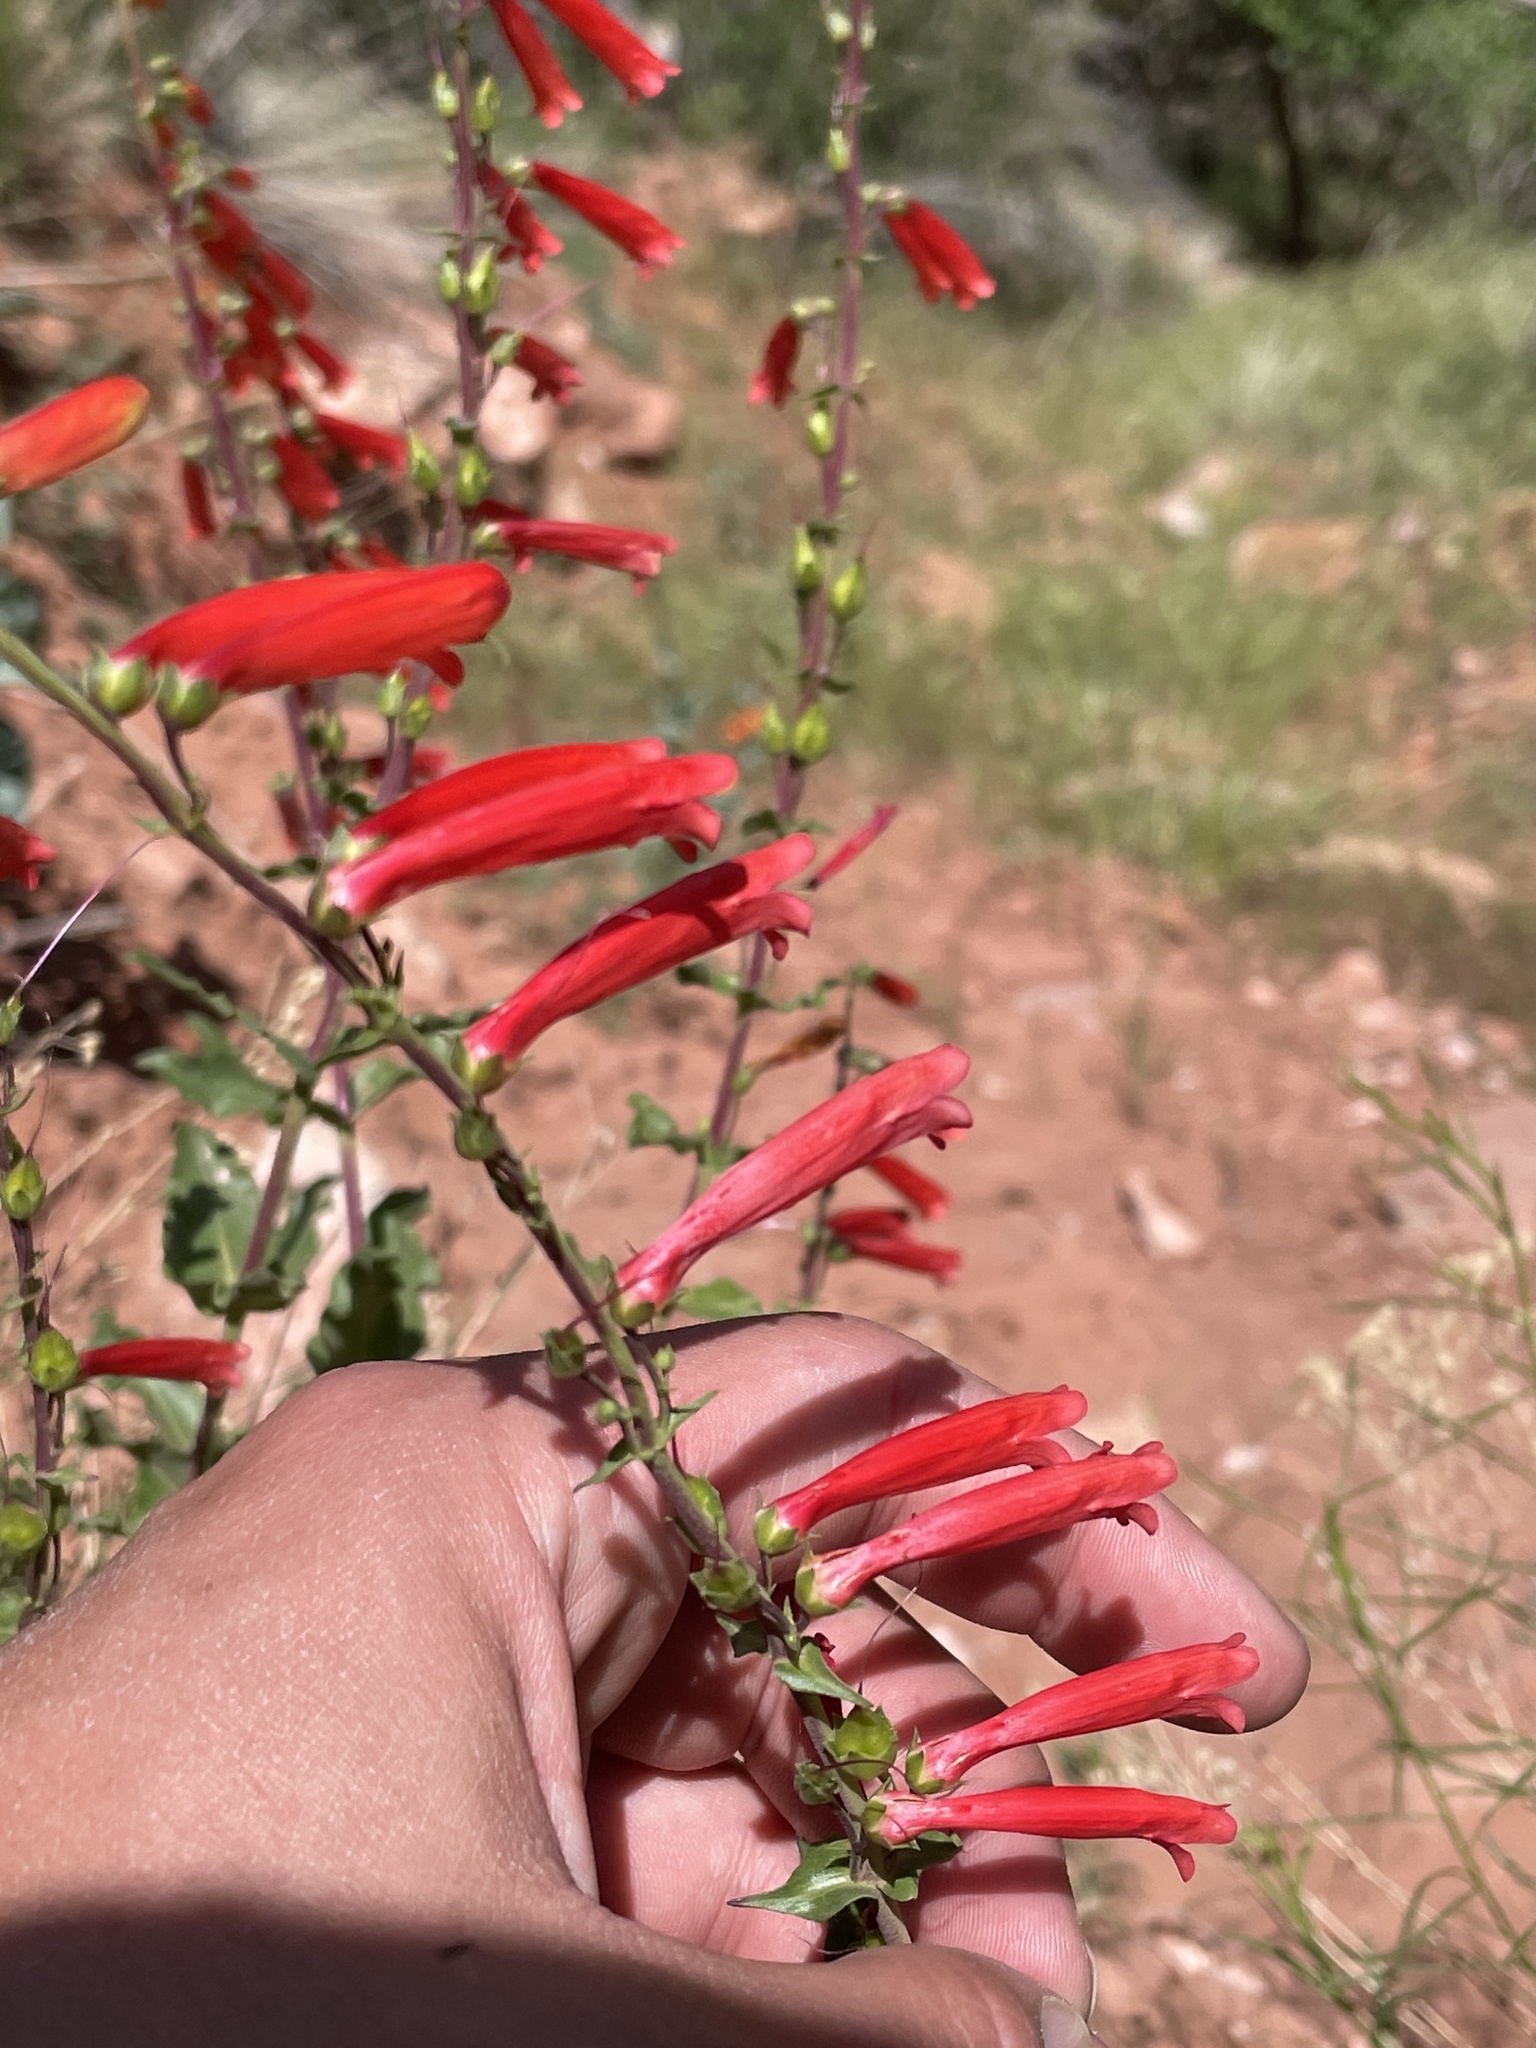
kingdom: Plantae
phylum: Tracheophyta
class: Magnoliopsida
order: Lamiales
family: Plantaginaceae
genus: Penstemon
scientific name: Penstemon eatonii
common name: Eaton's penstemon
